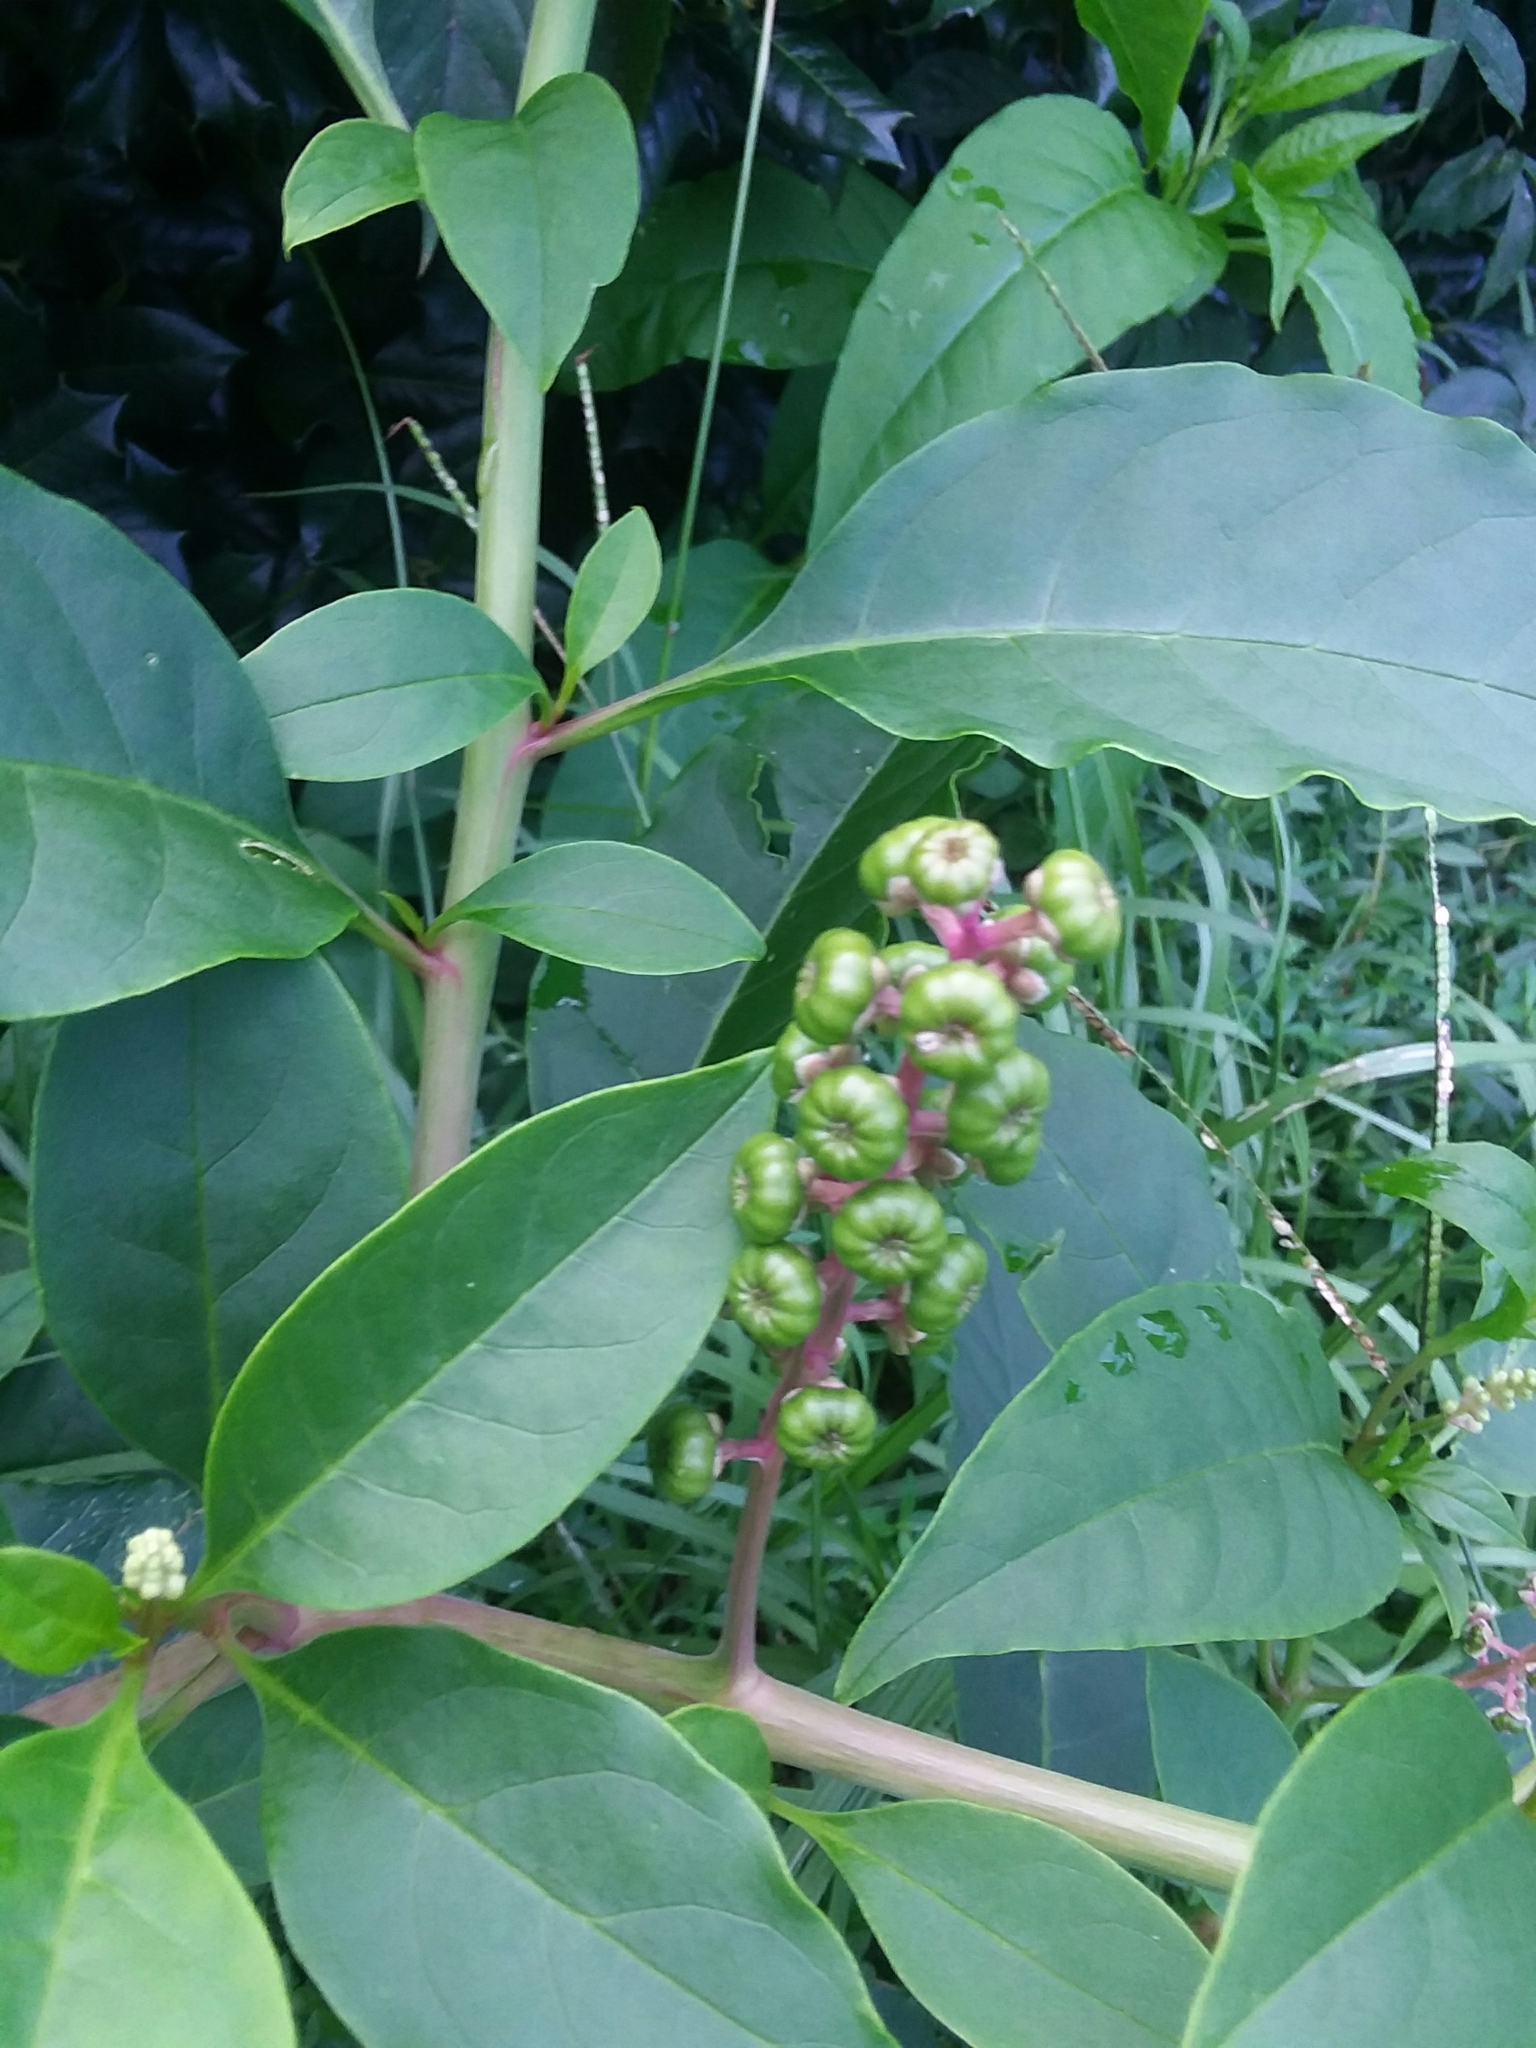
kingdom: Plantae
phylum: Tracheophyta
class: Magnoliopsida
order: Caryophyllales
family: Phytolaccaceae
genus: Phytolacca
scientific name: Phytolacca americana
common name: American pokeweed
